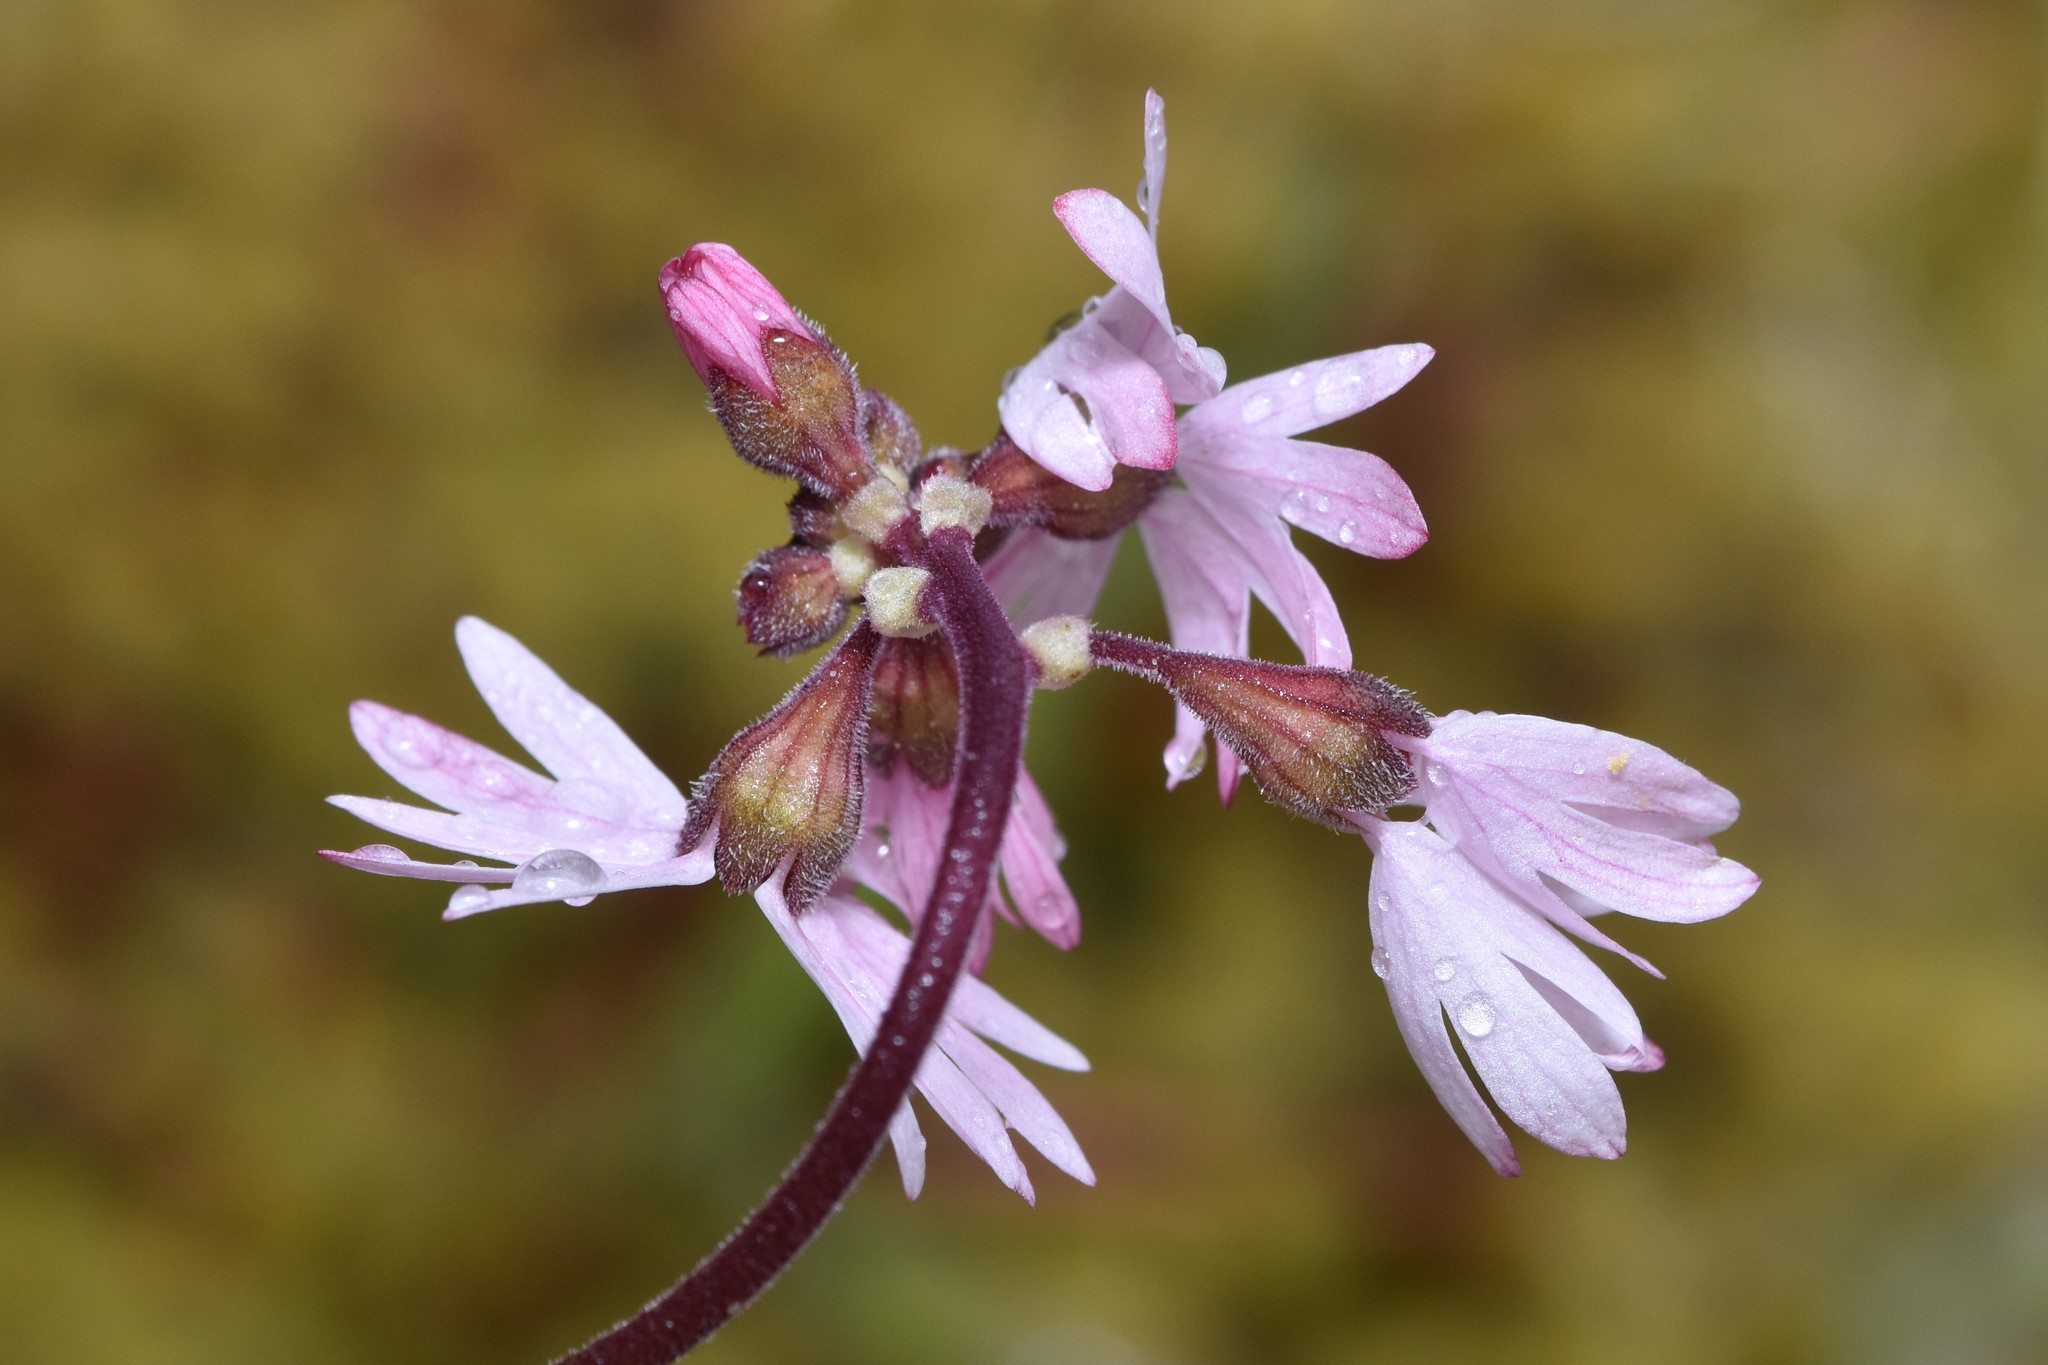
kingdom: Plantae
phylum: Tracheophyta
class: Magnoliopsida
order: Saxifragales
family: Saxifragaceae
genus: Lithophragma
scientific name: Lithophragma parviflorum
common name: Small-flowered fringe-cup
